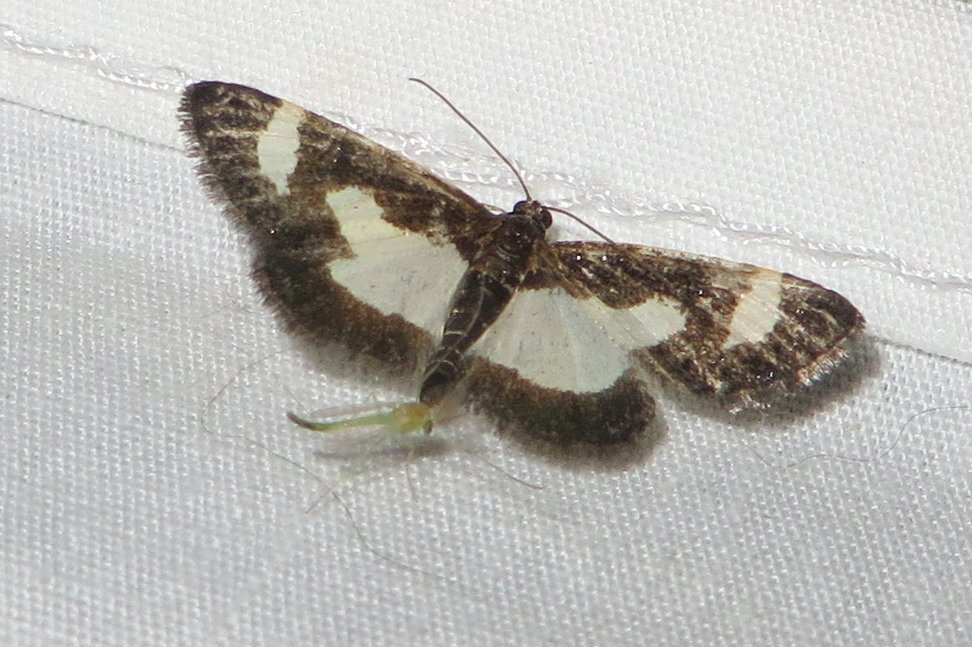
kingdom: Animalia
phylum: Arthropoda
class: Insecta
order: Lepidoptera
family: Geometridae
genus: Heliomata
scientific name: Heliomata cycladata
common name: Common spring moth
